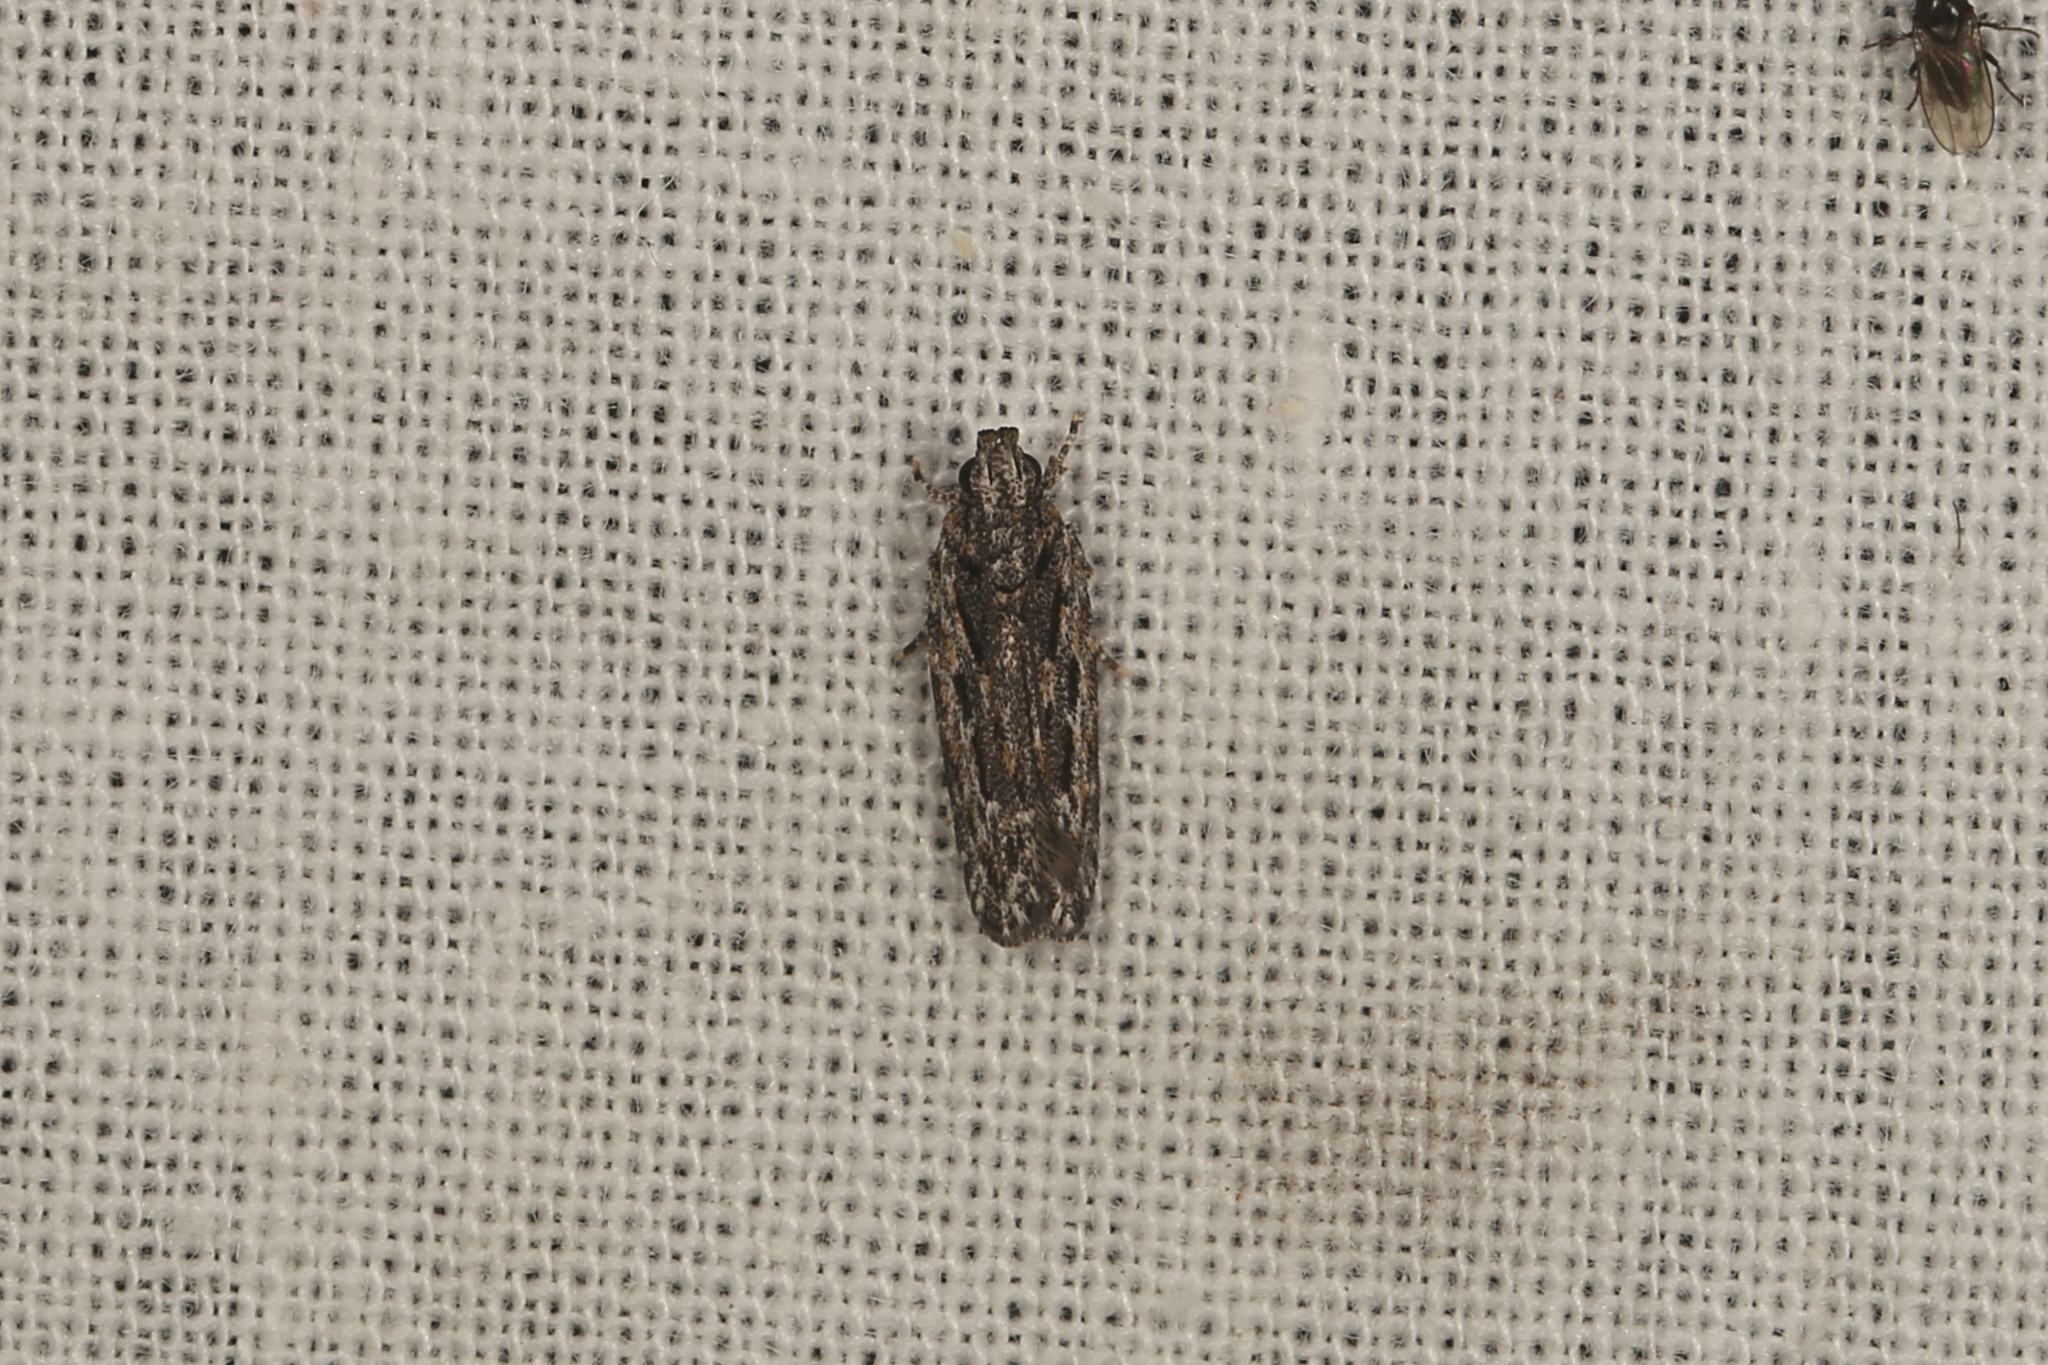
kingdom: Animalia
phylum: Arthropoda
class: Insecta
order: Lepidoptera
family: Gelechiidae
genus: Ardozyga
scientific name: Ardozyga amblopis
